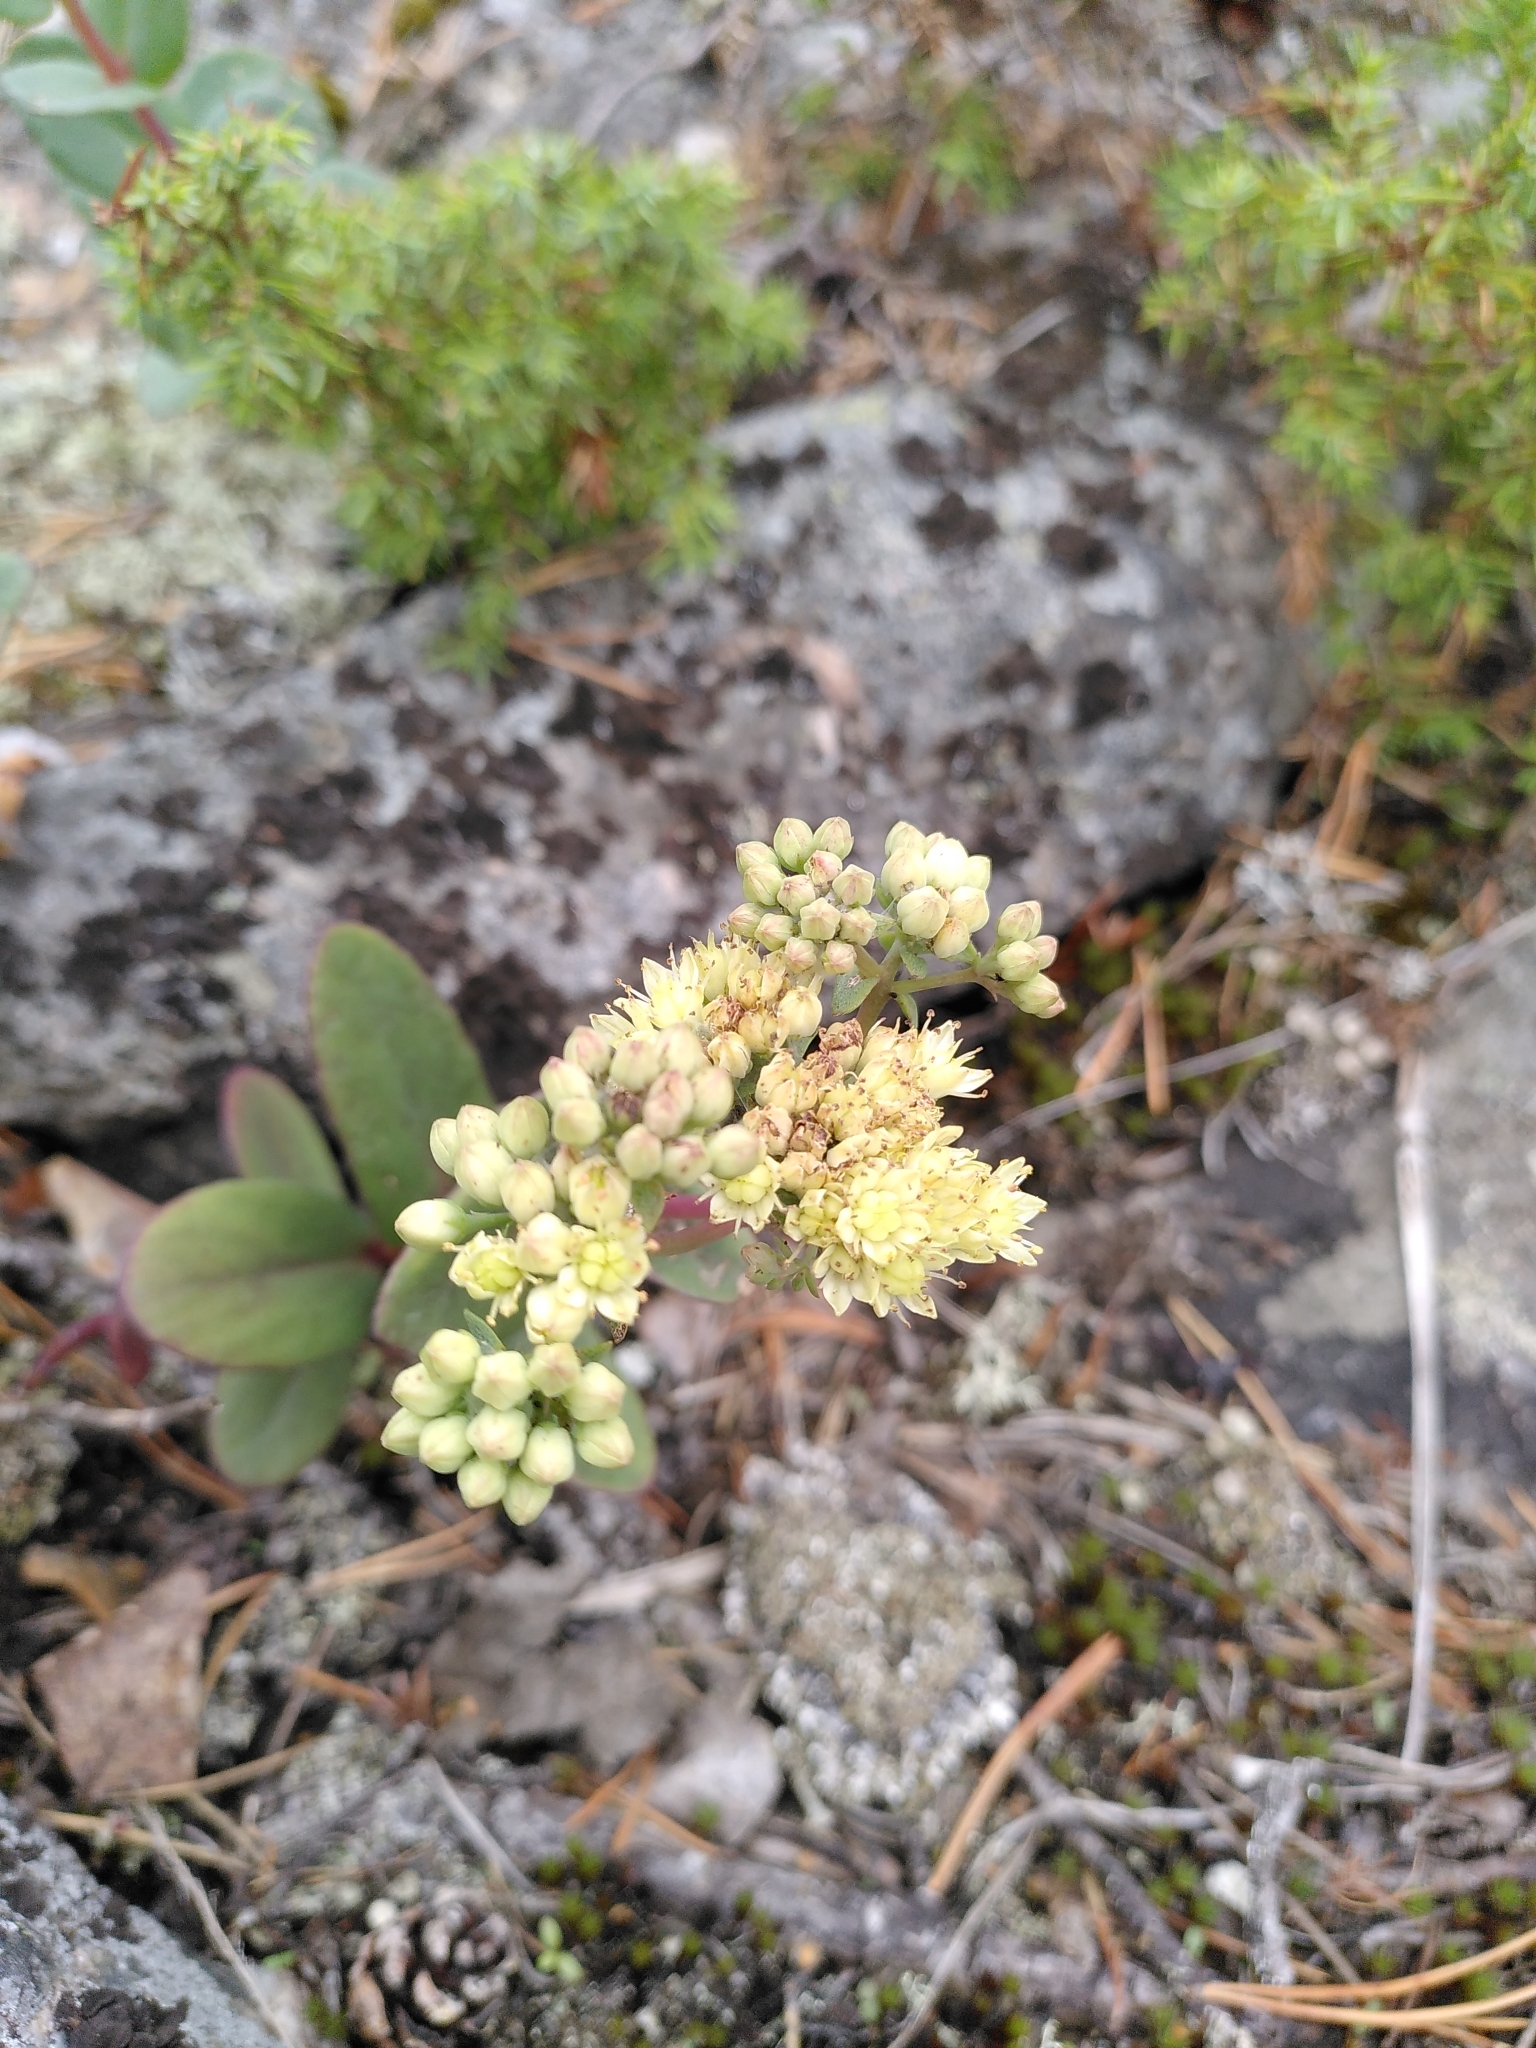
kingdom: Plantae
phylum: Tracheophyta
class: Magnoliopsida
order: Saxifragales
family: Crassulaceae
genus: Hylotelephium
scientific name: Hylotelephium maximum
